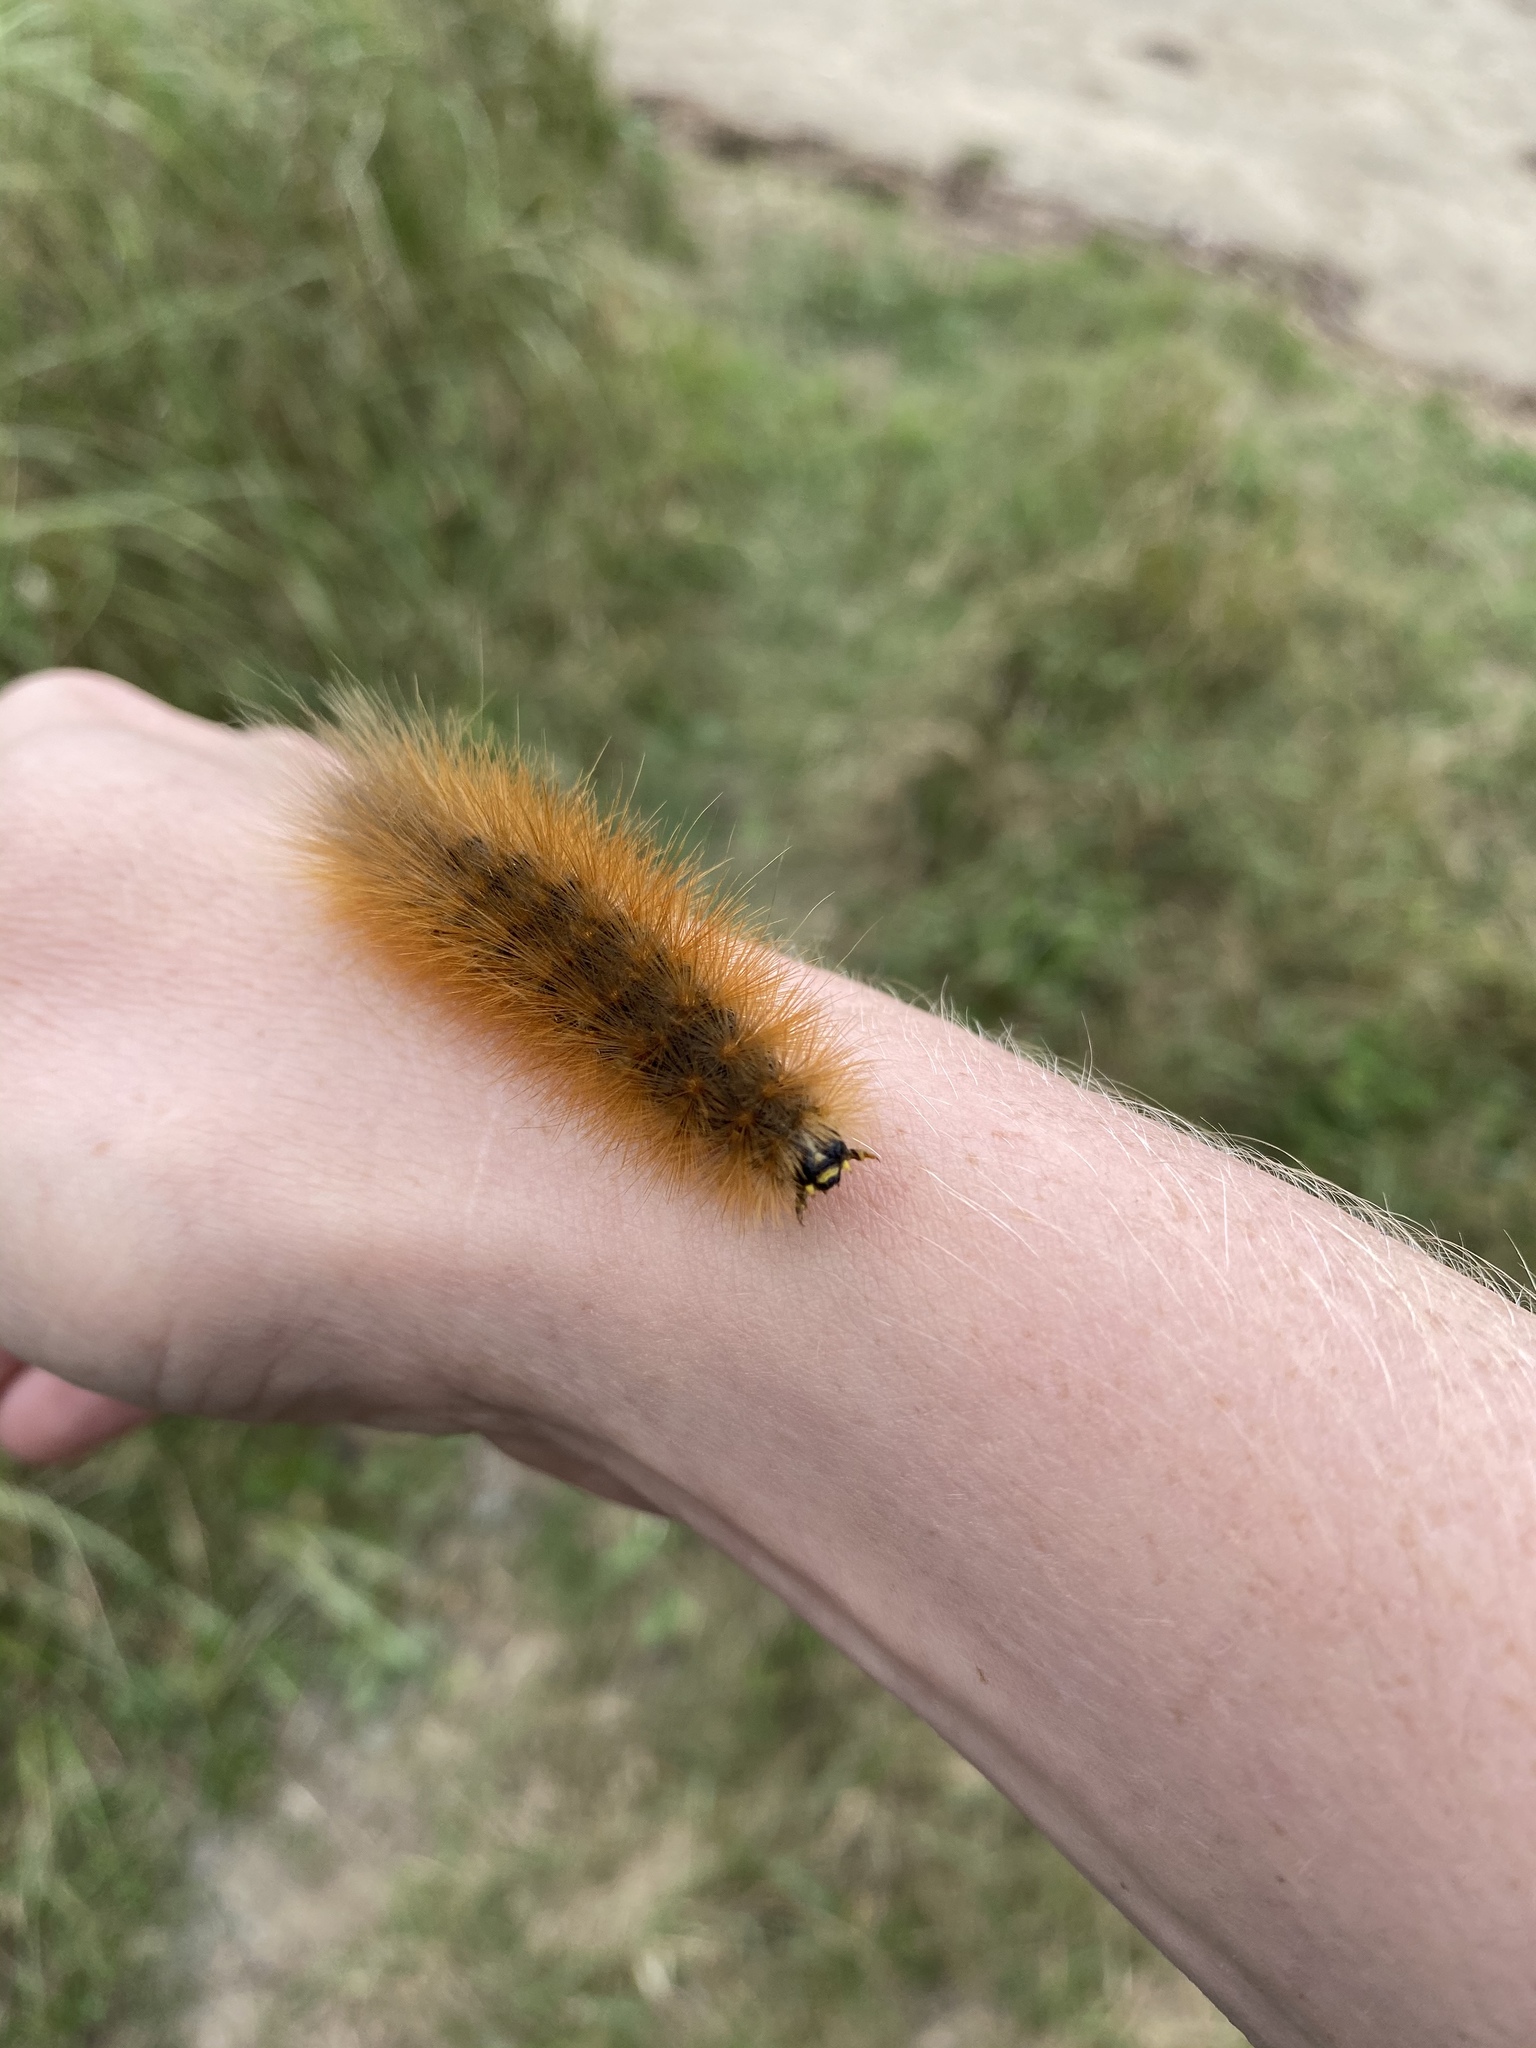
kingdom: Animalia
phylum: Arthropoda
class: Insecta
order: Lepidoptera
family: Erebidae
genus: Estigmene
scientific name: Estigmene acrea
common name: Salt marsh moth
